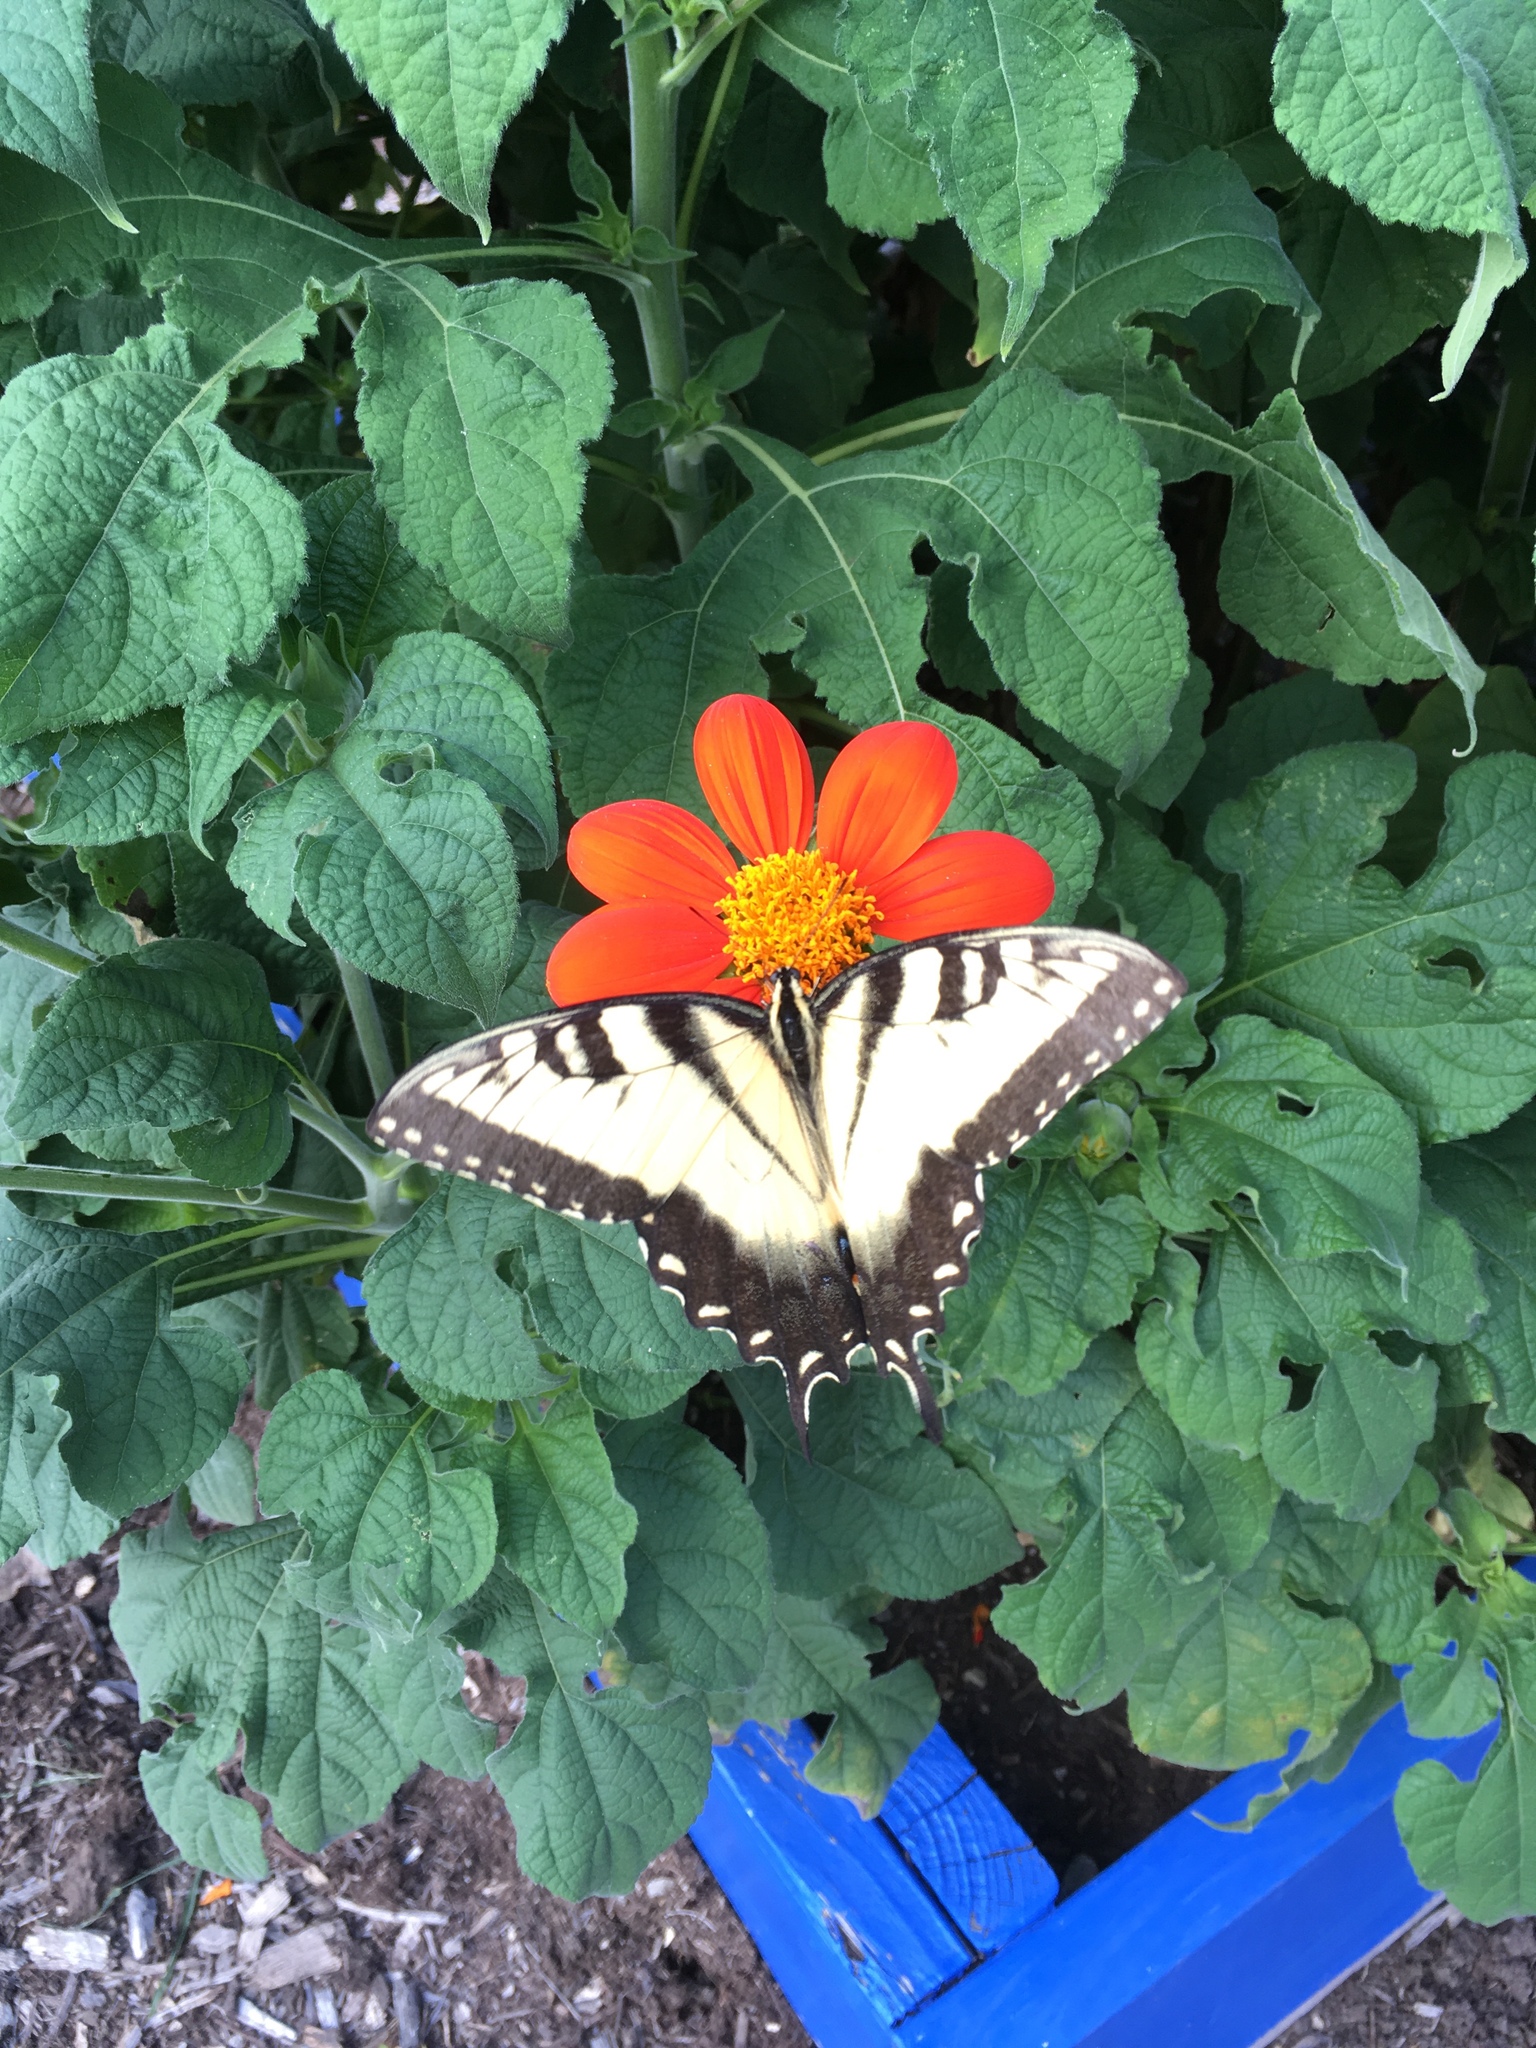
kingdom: Animalia
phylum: Arthropoda
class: Insecta
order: Lepidoptera
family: Papilionidae
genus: Papilio
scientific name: Papilio glaucus
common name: Tiger swallowtail
